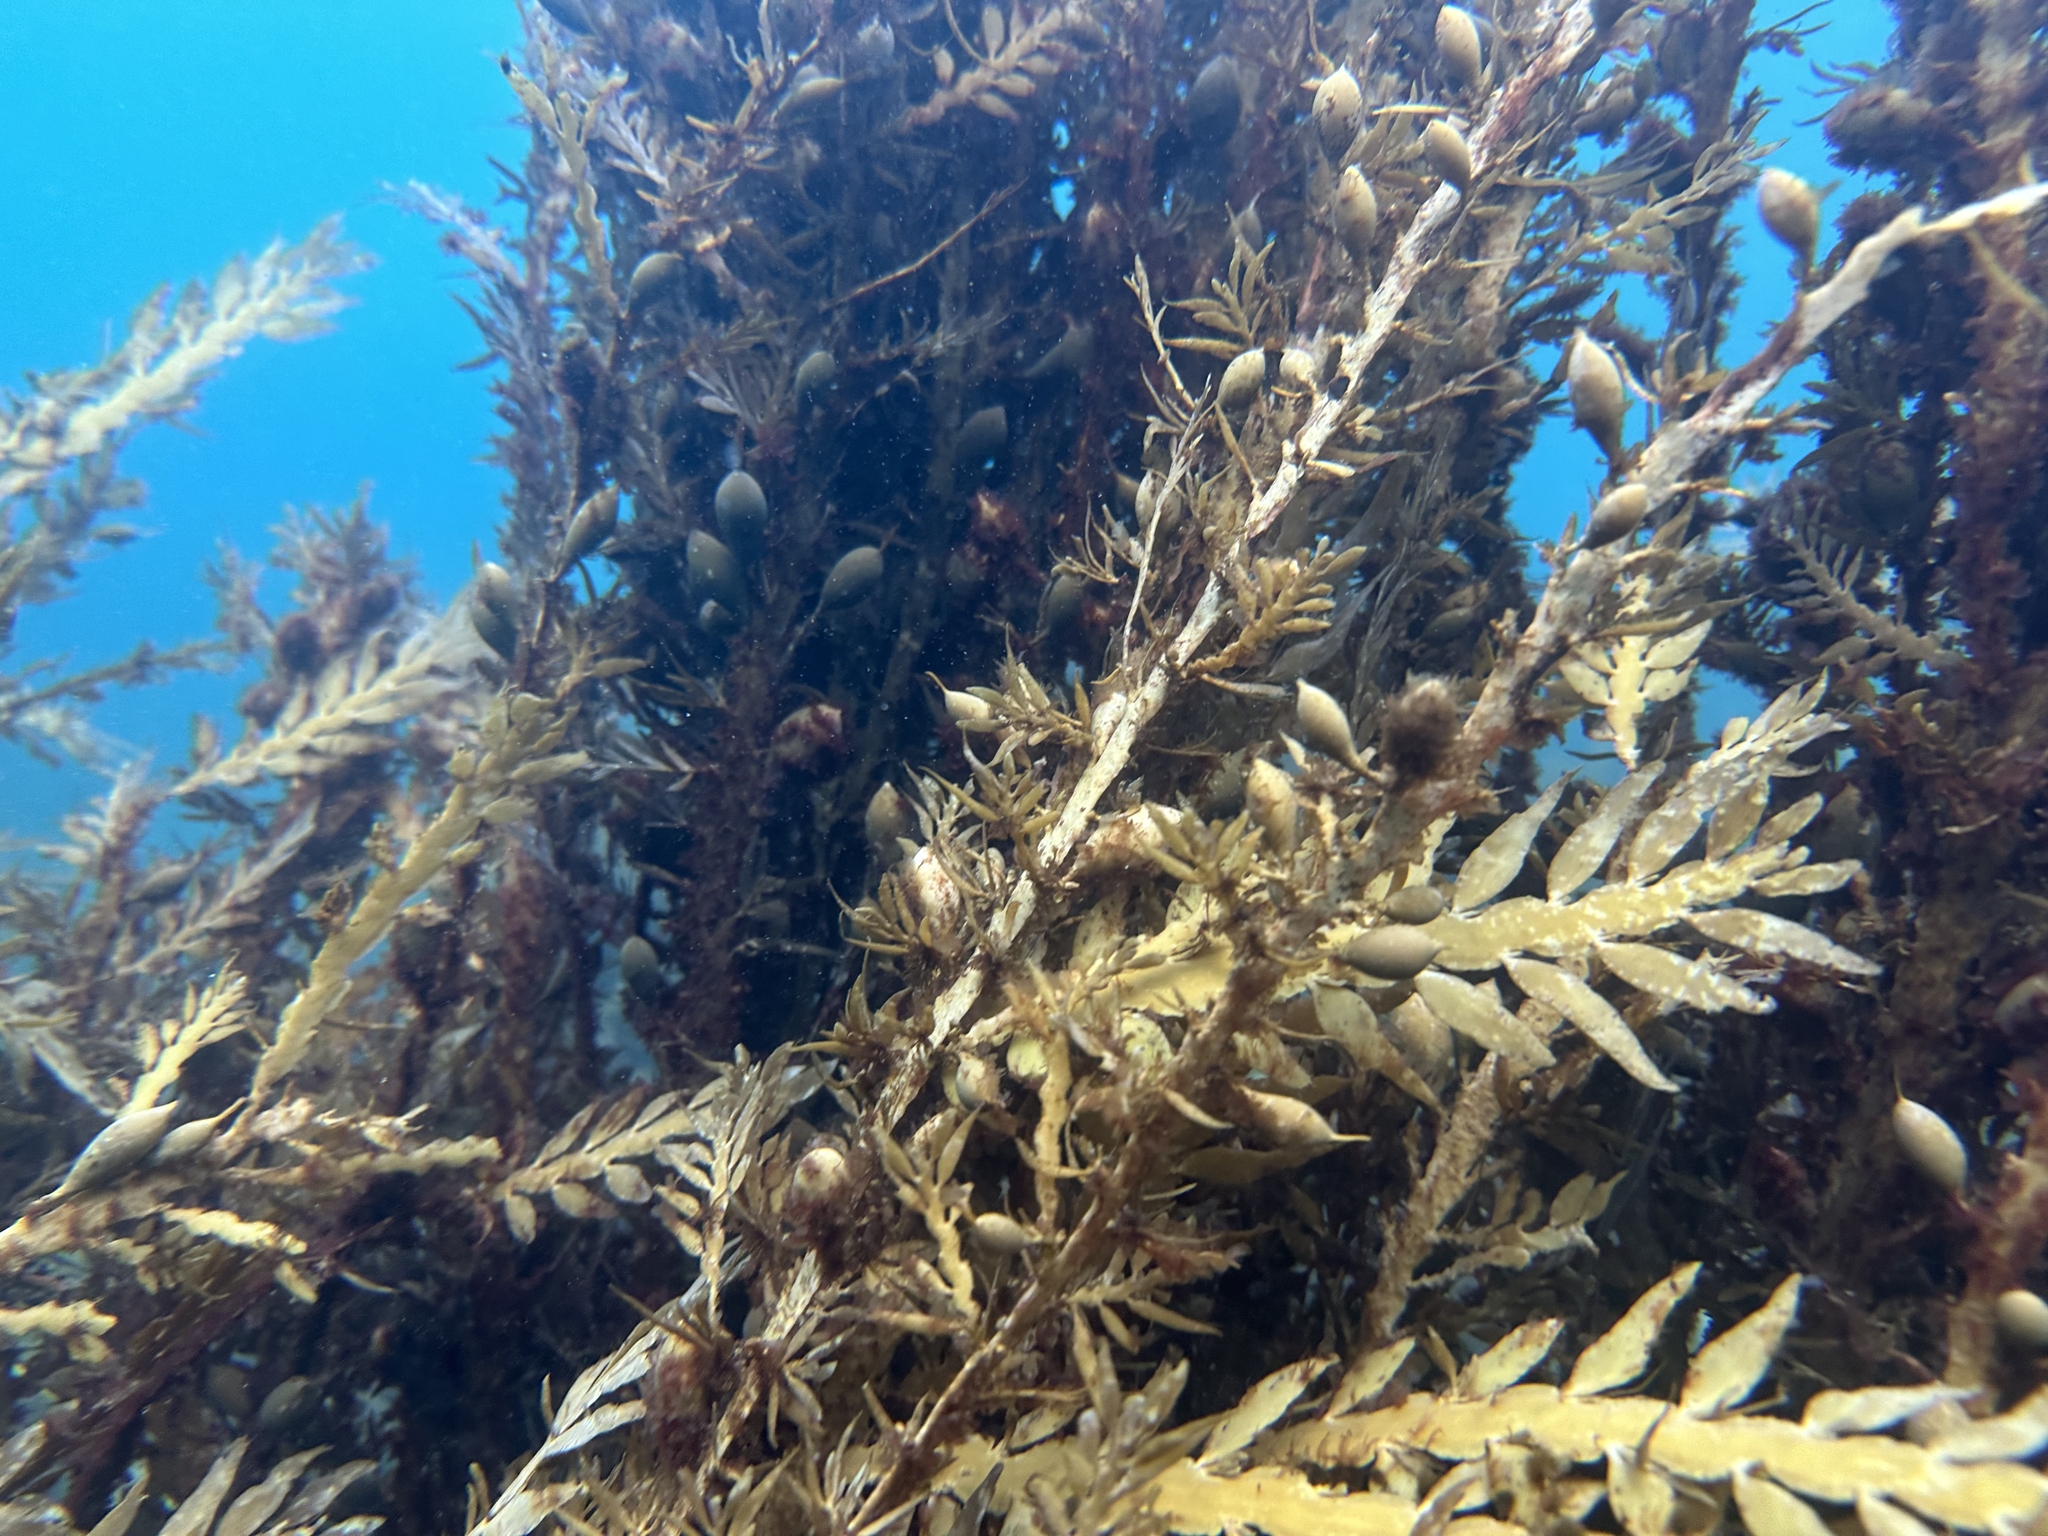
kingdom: Chromista
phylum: Ochrophyta
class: Phaeophyceae
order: Fucales
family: Sargassaceae
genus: Carpophyllum
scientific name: Carpophyllum maschalocarpum
